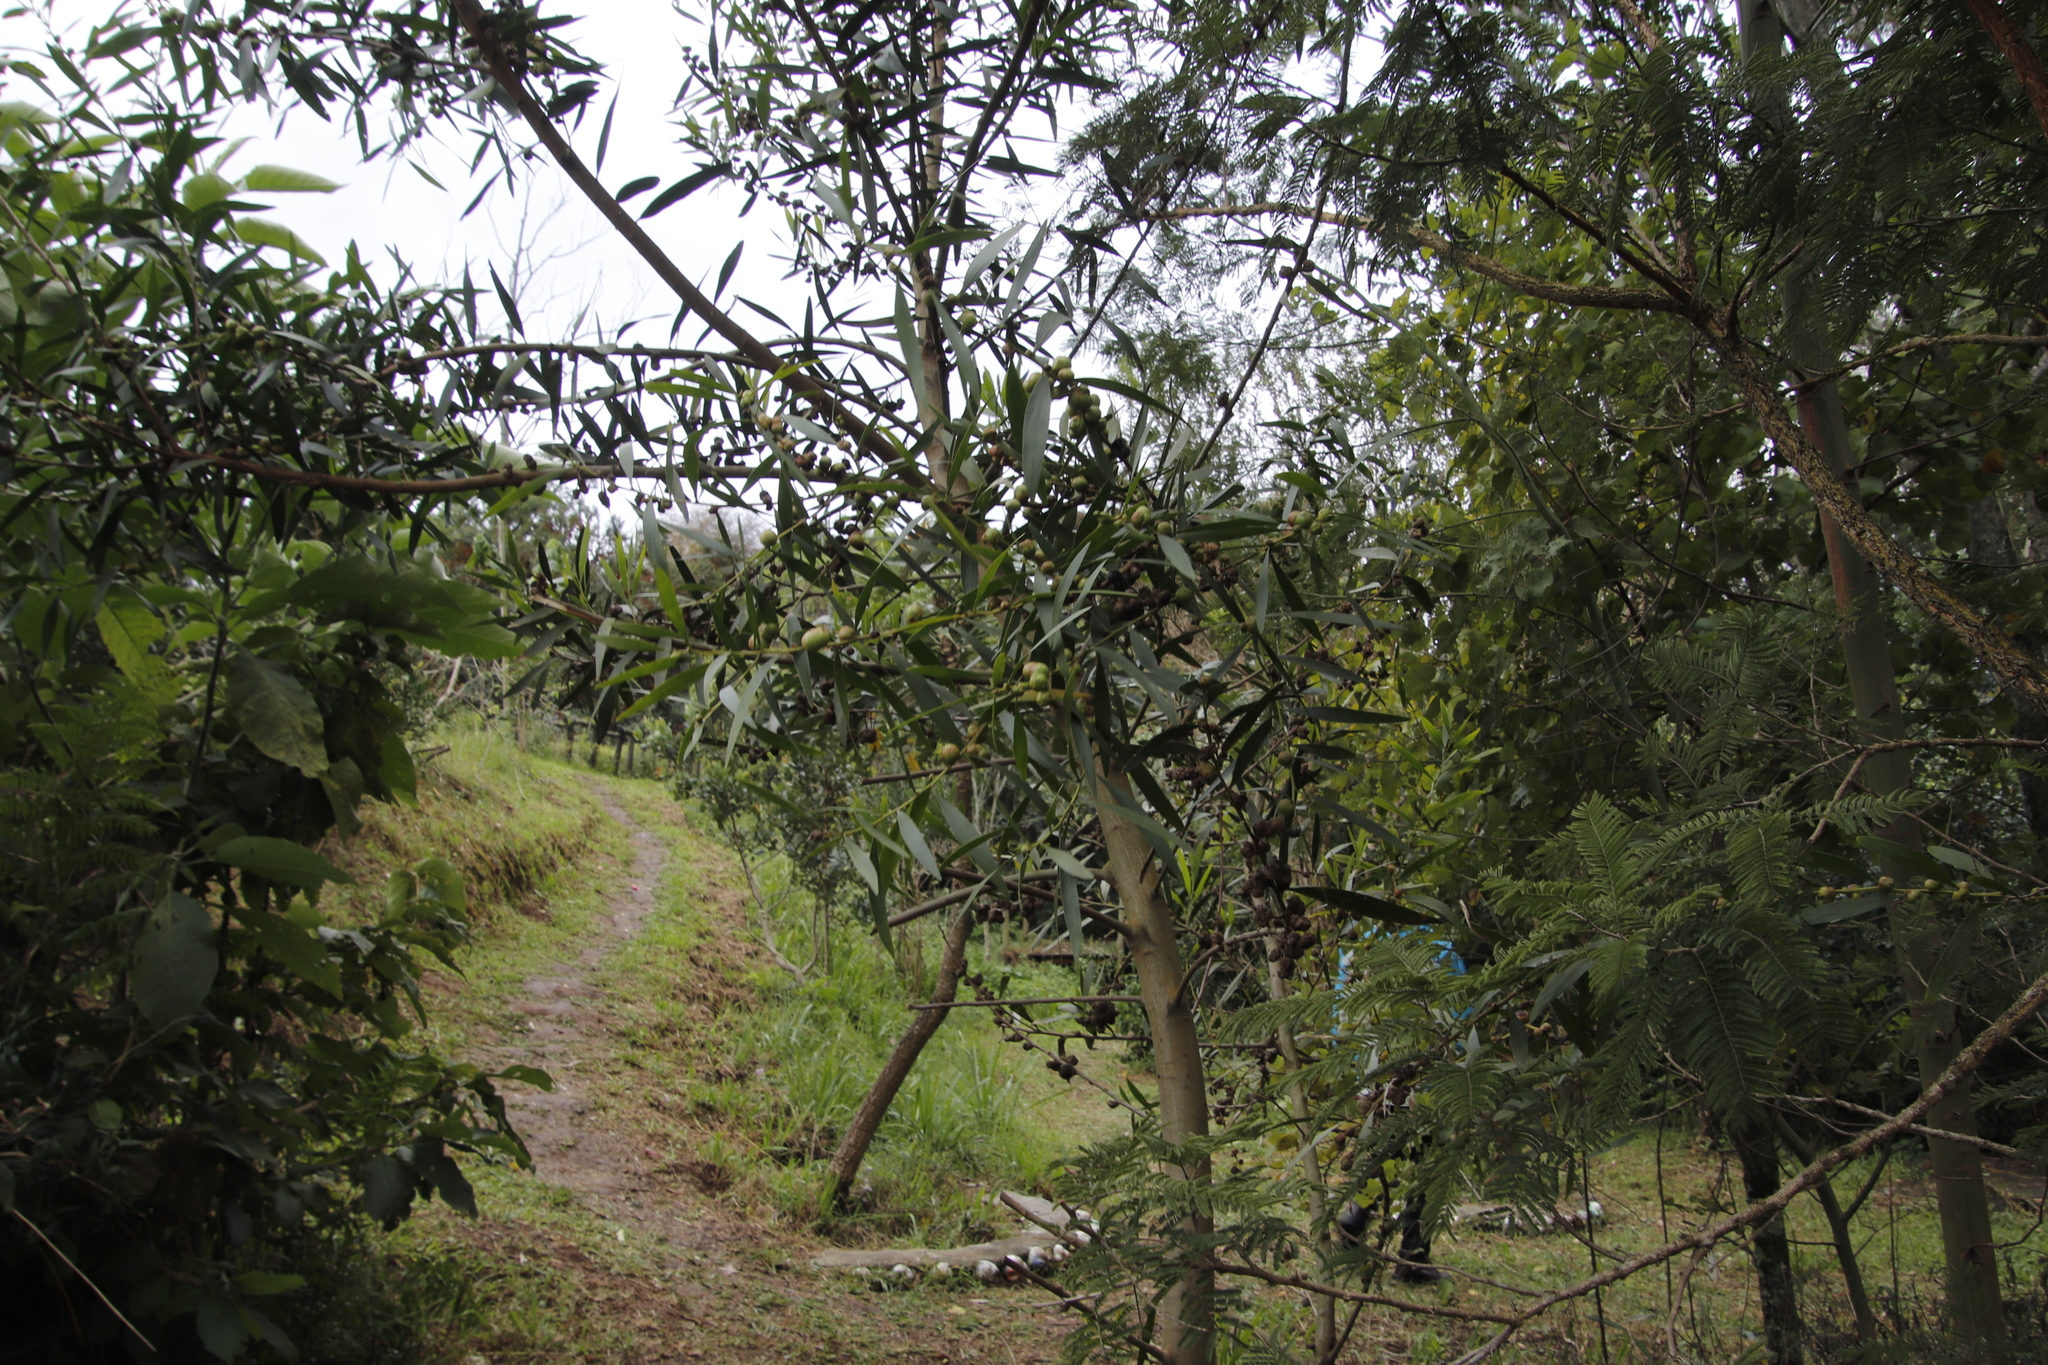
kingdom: Plantae
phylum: Tracheophyta
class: Magnoliopsida
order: Fabales
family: Fabaceae
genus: Acacia
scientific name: Acacia longifolia
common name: Sydney golden wattle
